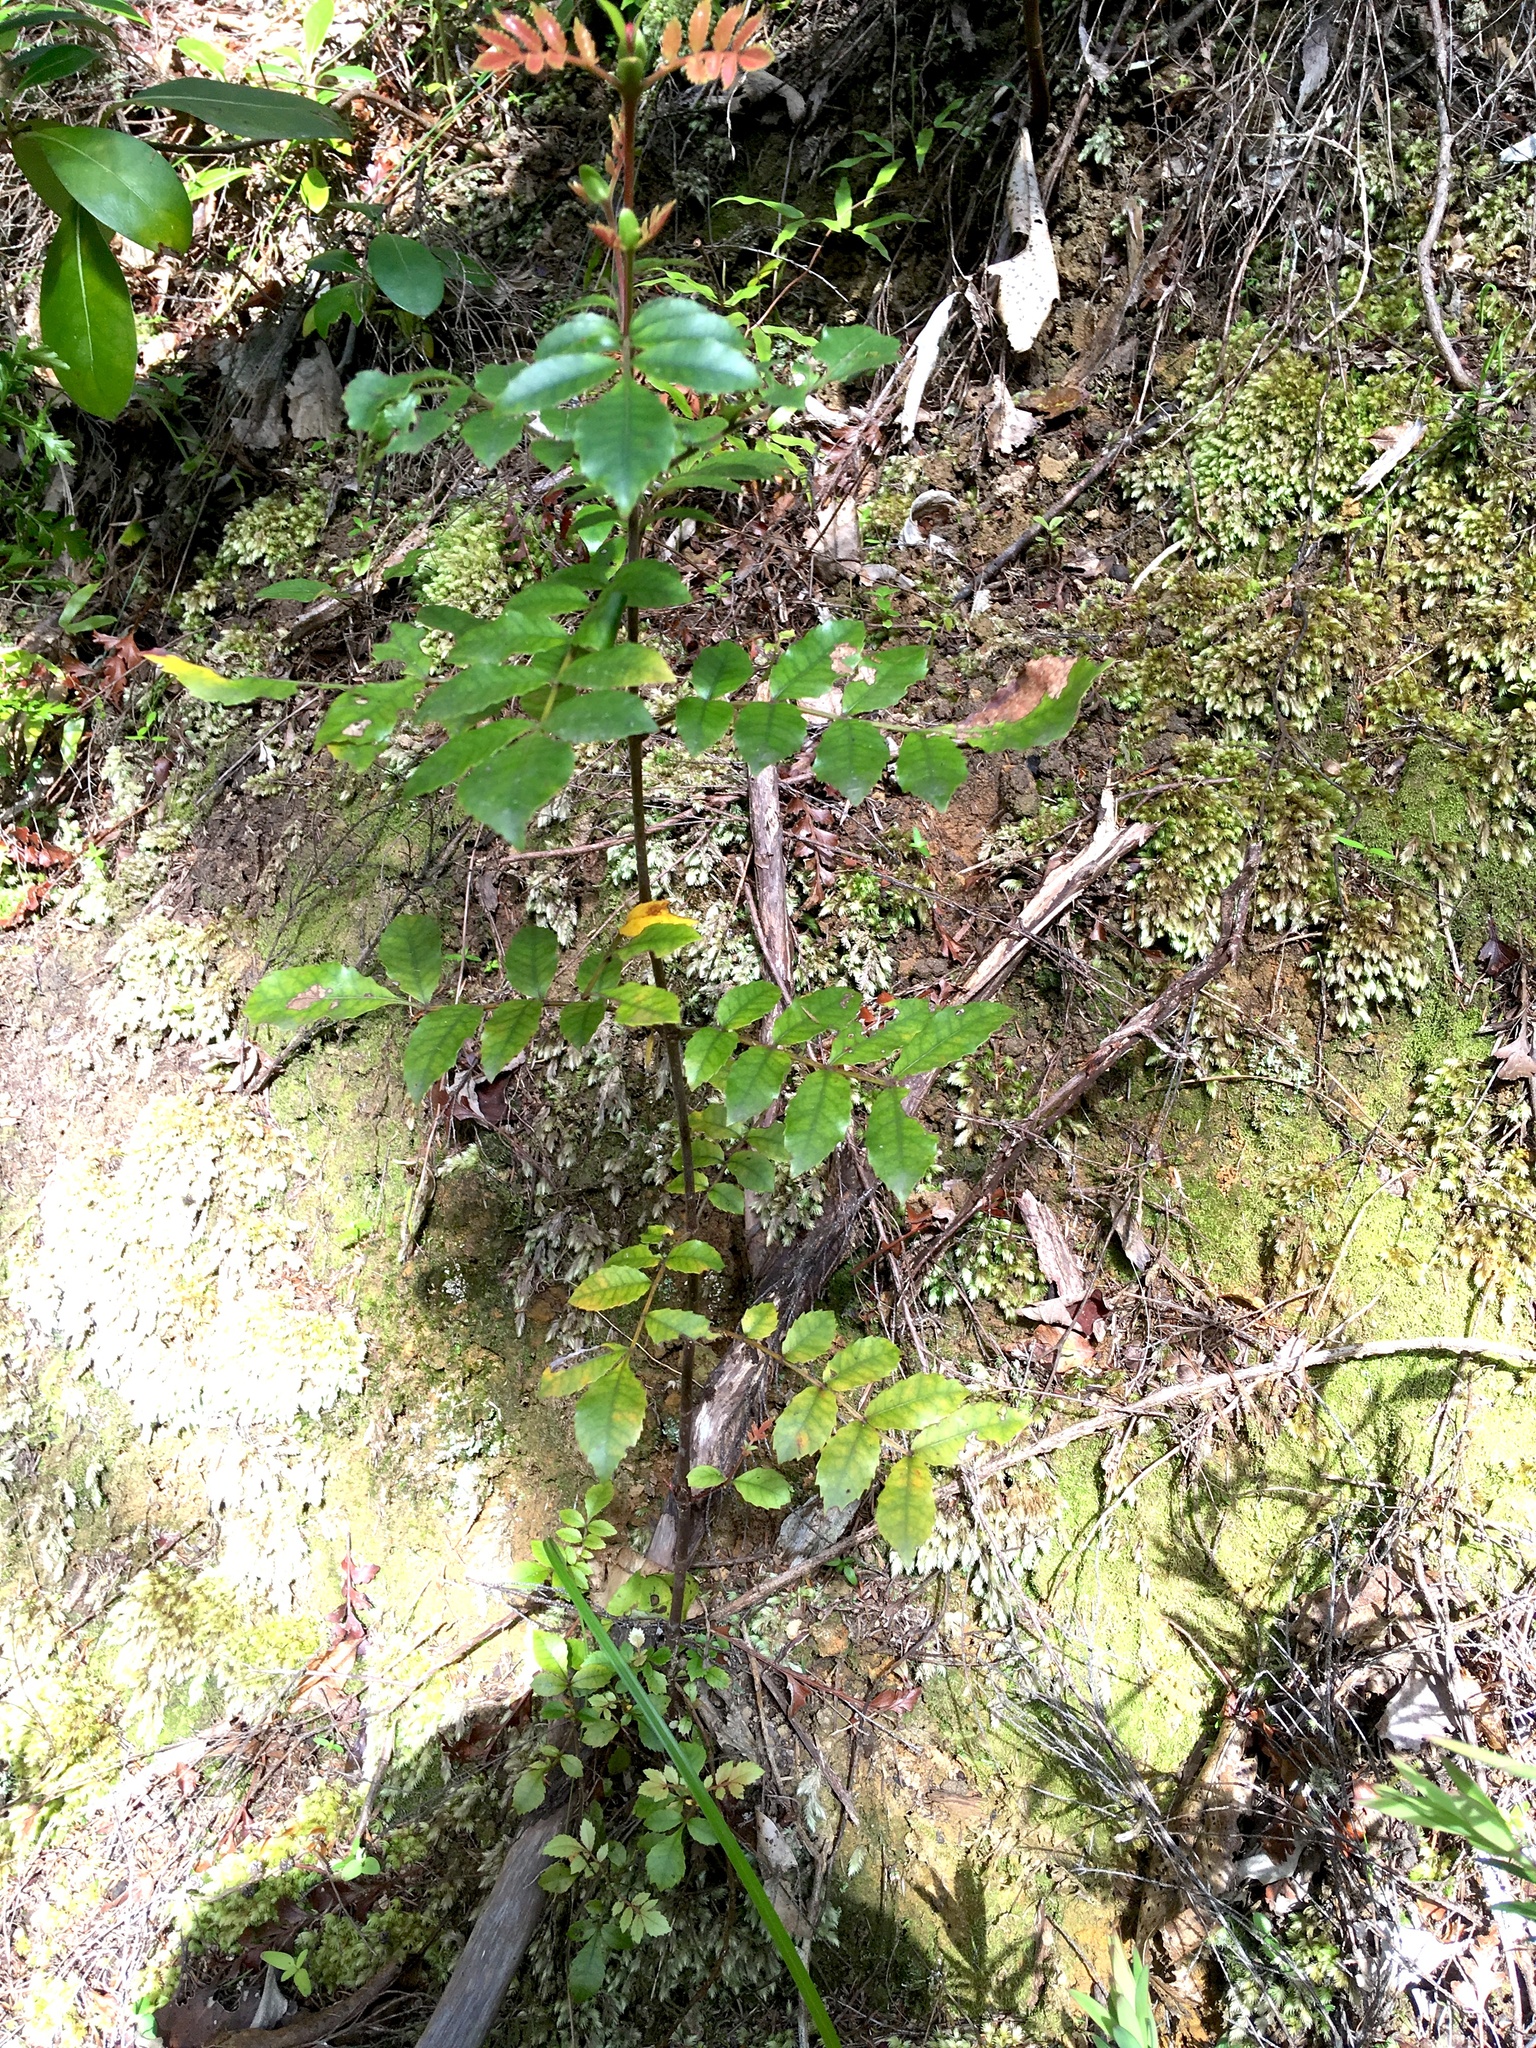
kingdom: Plantae
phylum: Tracheophyta
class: Magnoliopsida
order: Oxalidales
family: Cunoniaceae
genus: Pterophylla
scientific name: Pterophylla sylvicola
